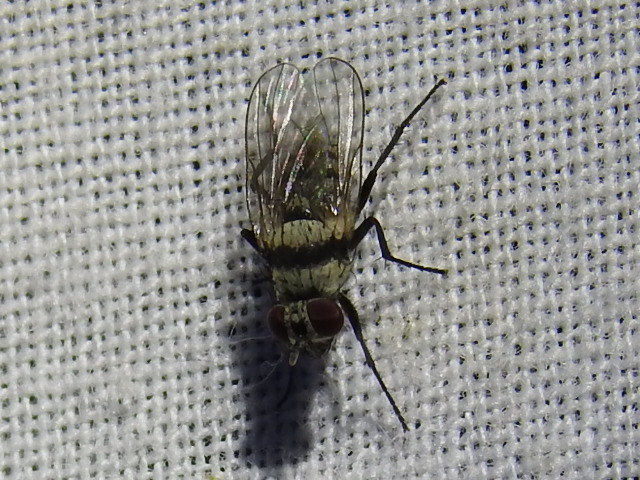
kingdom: Animalia
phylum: Arthropoda
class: Insecta
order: Diptera
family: Anthomyiidae
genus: Anthomyia
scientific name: Anthomyia illocata
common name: Fly
